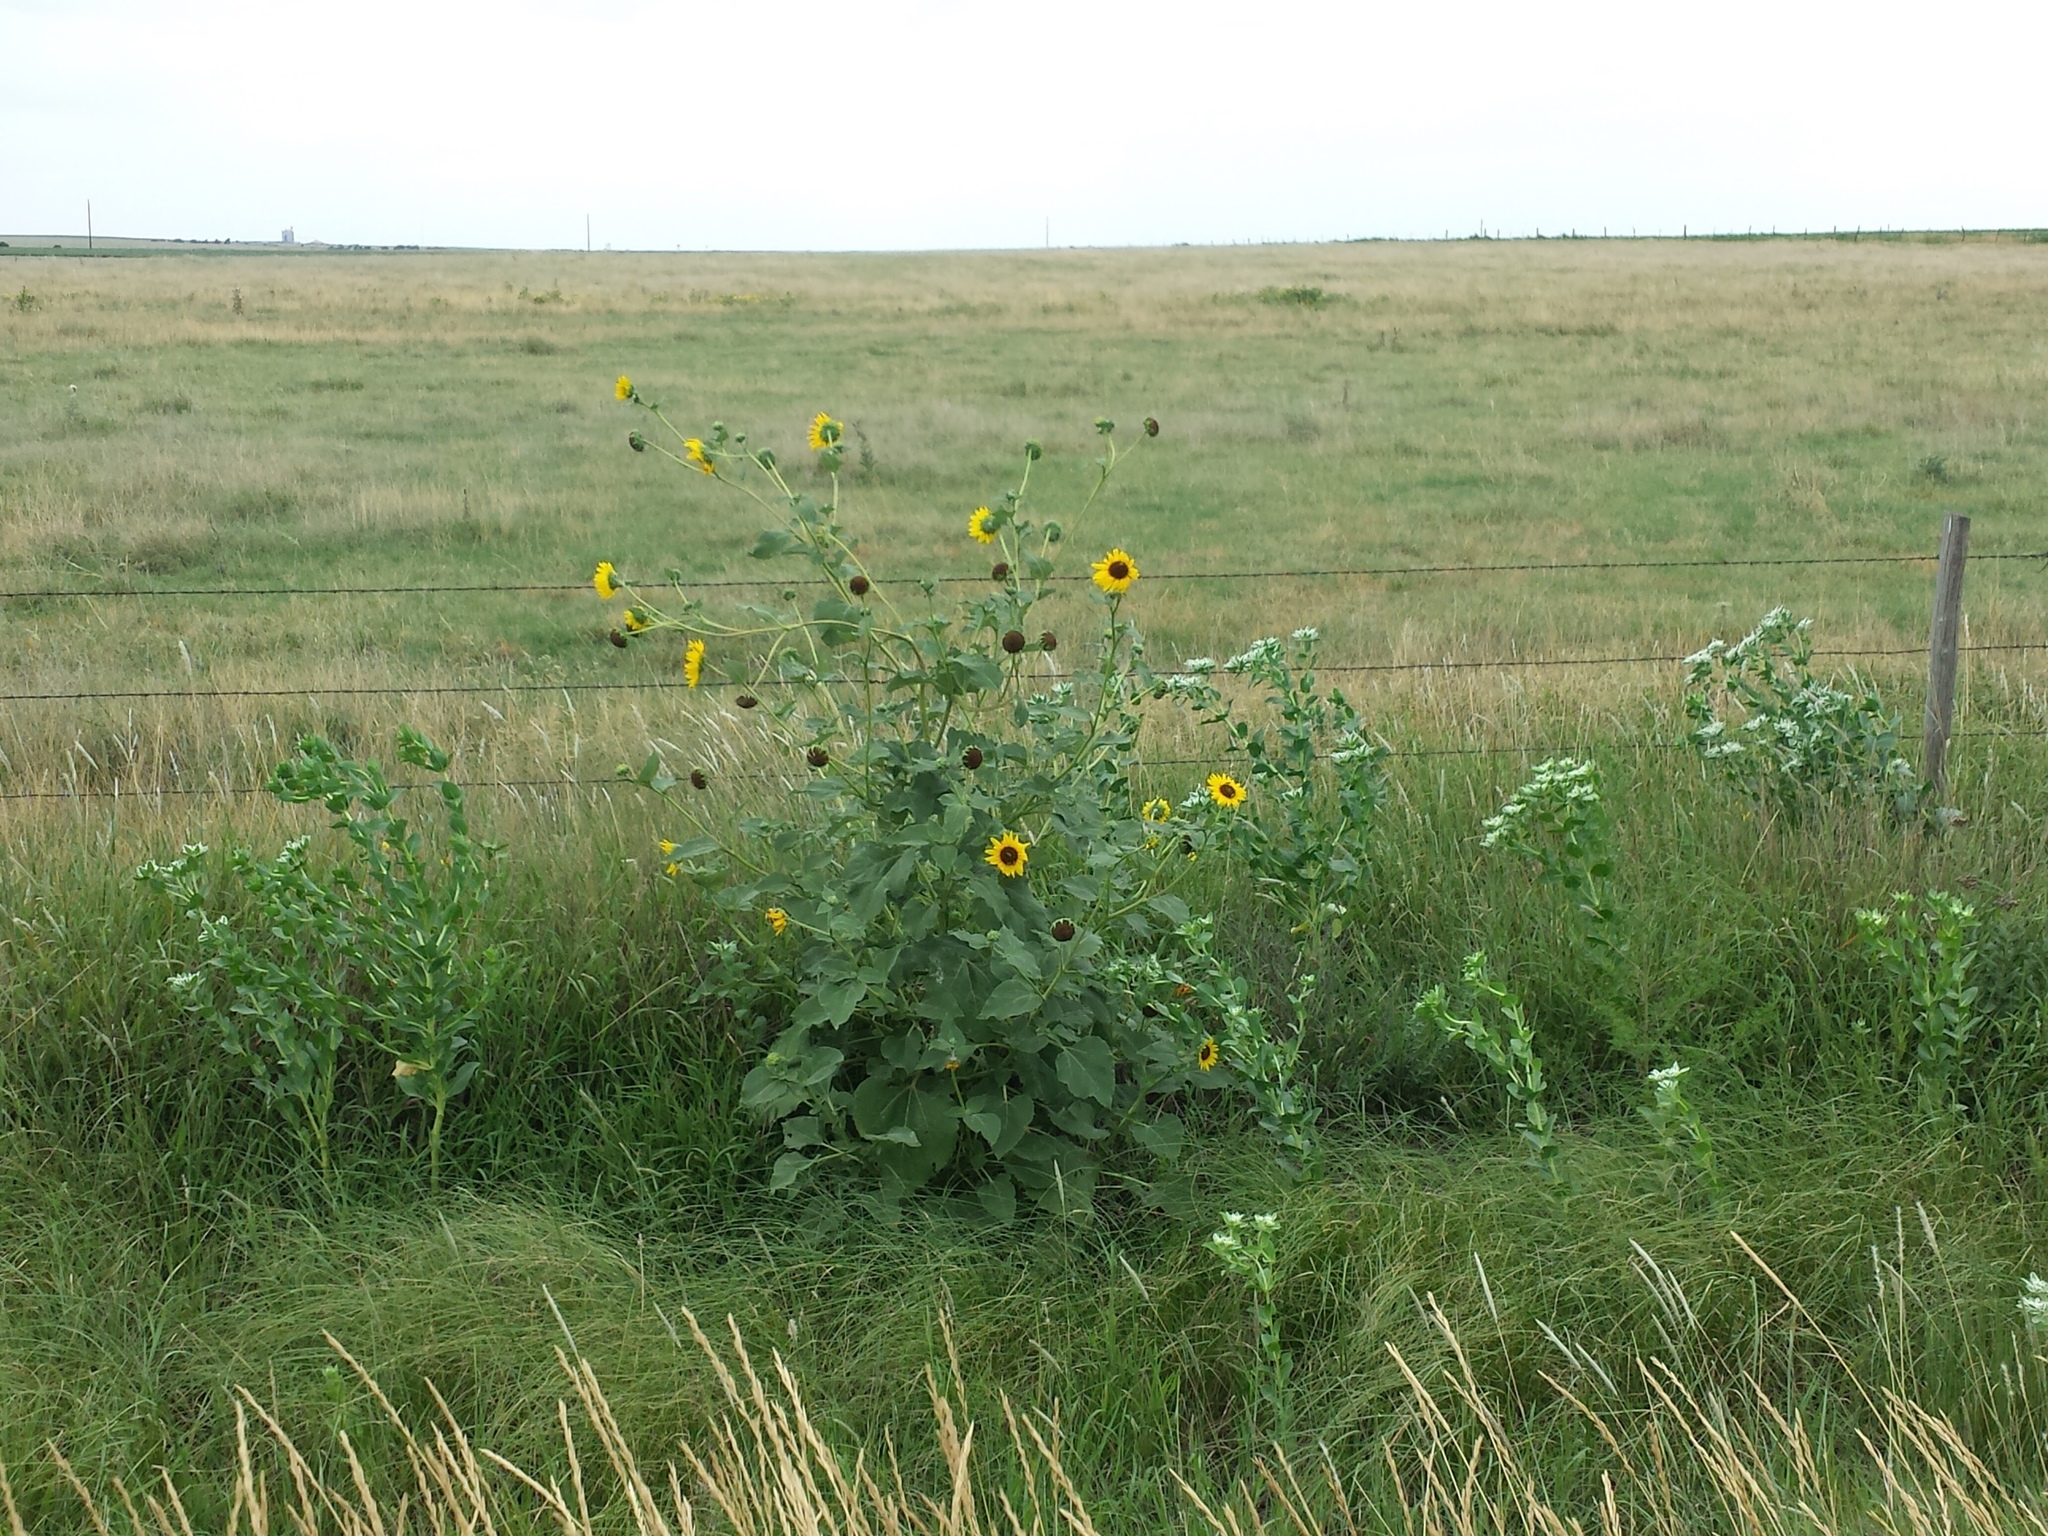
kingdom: Plantae
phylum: Tracheophyta
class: Magnoliopsida
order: Asterales
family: Asteraceae
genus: Helianthus
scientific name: Helianthus annuus
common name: Sunflower
